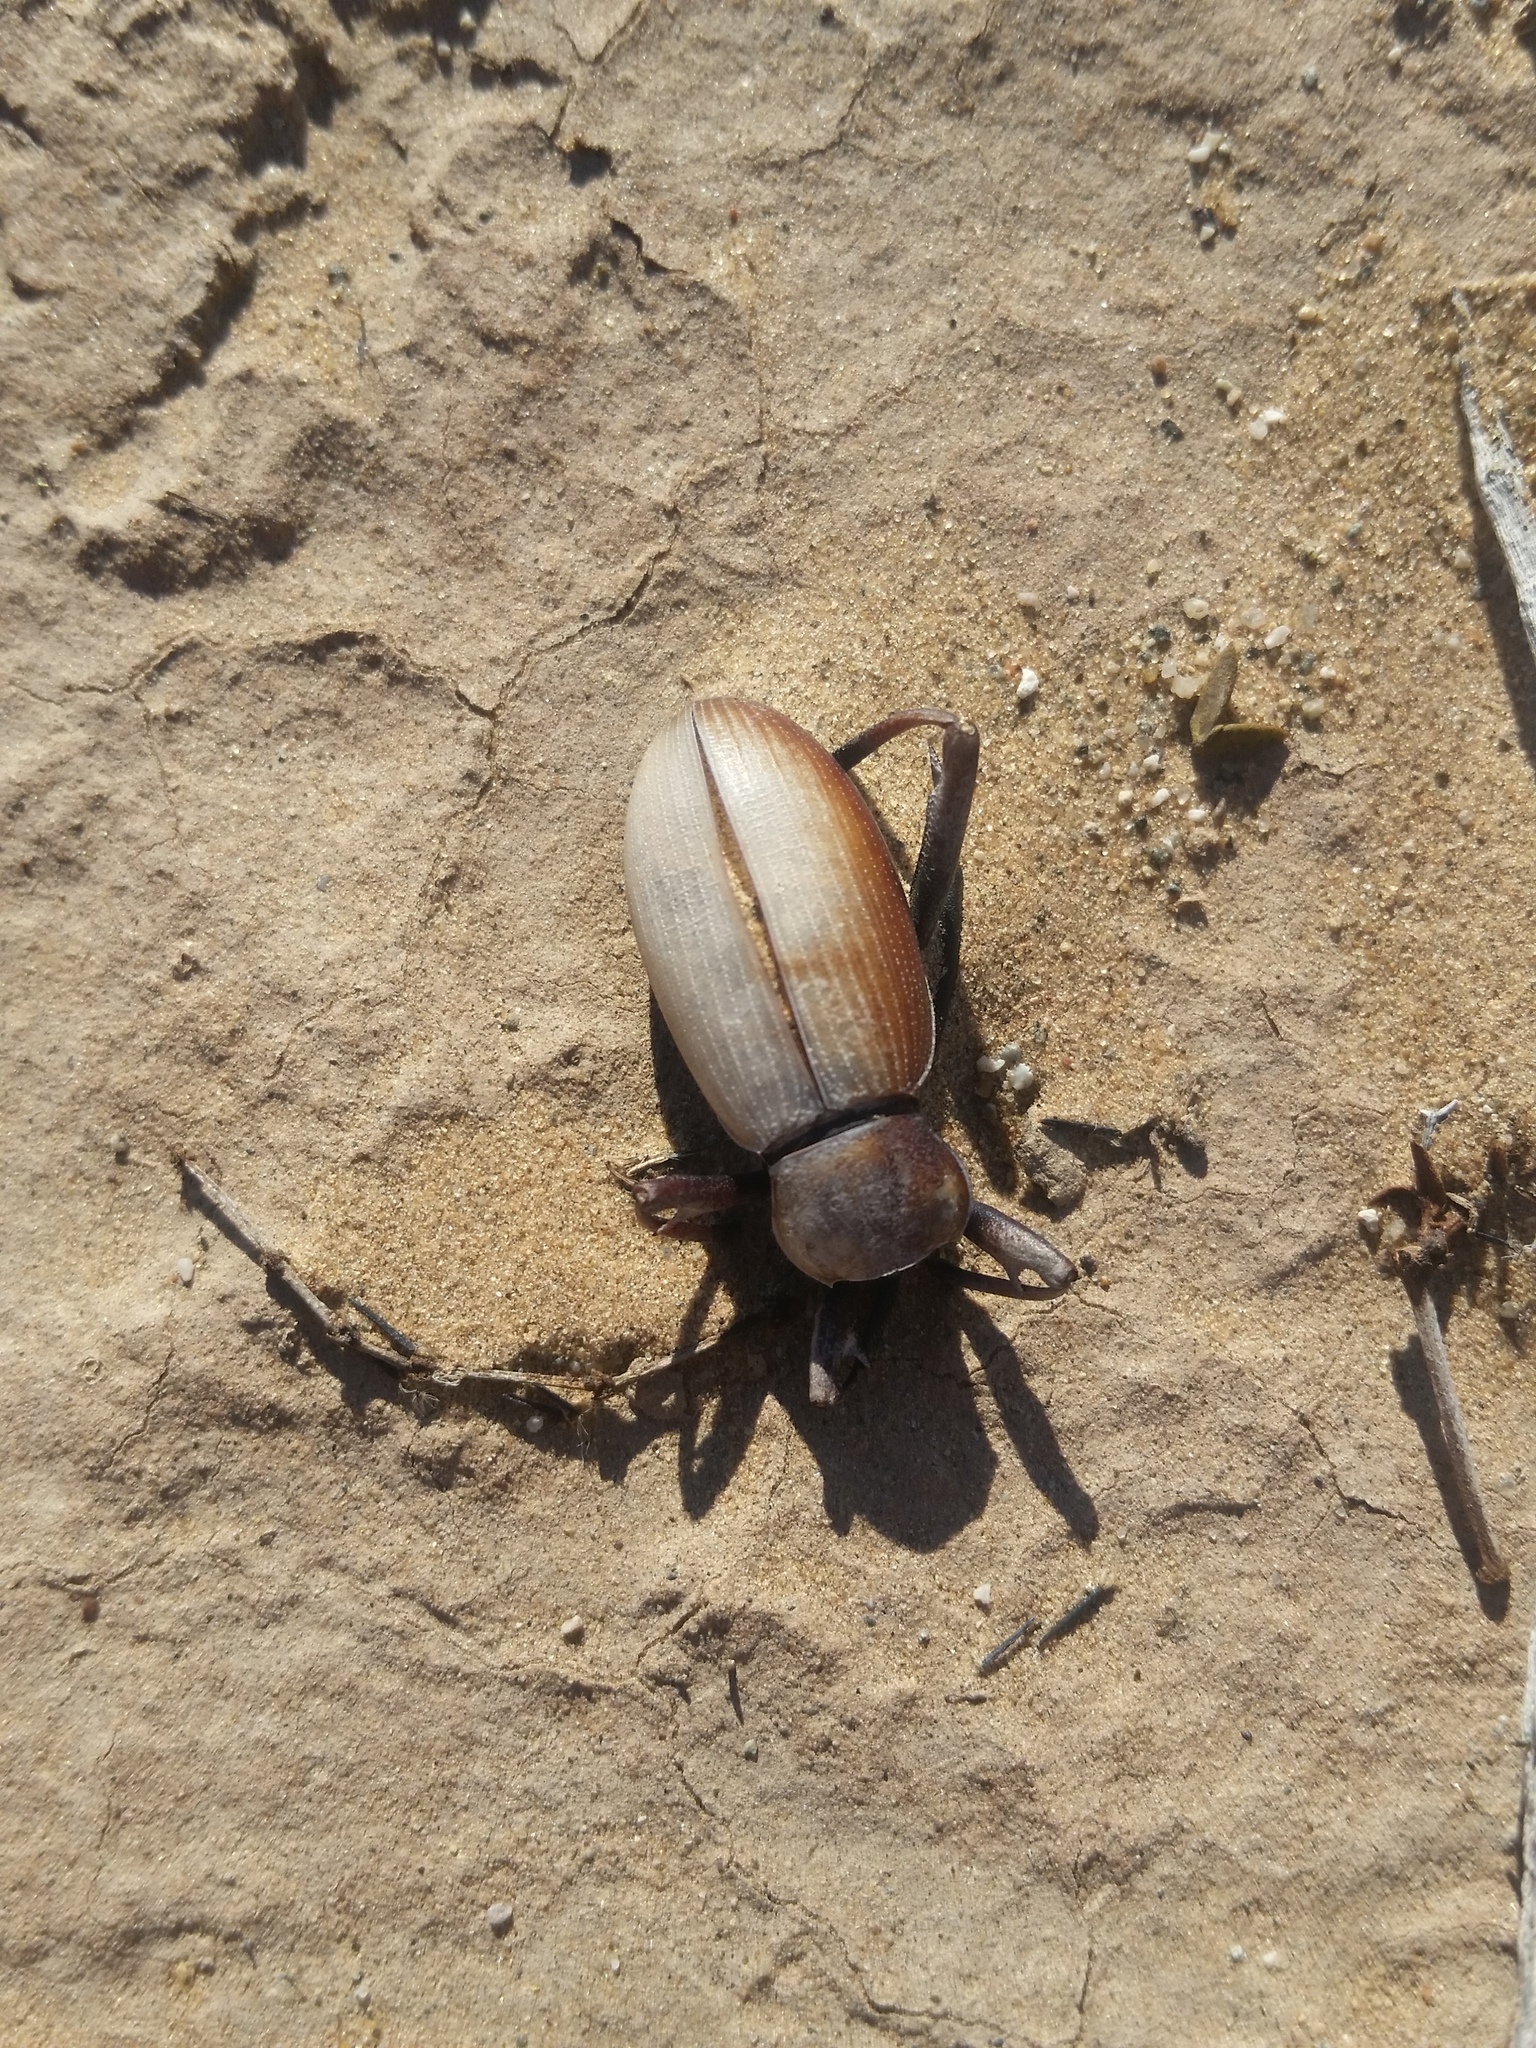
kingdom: Animalia
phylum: Arthropoda
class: Insecta
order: Coleoptera
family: Tenebrionidae
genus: Eleodes
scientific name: Eleodes armata
